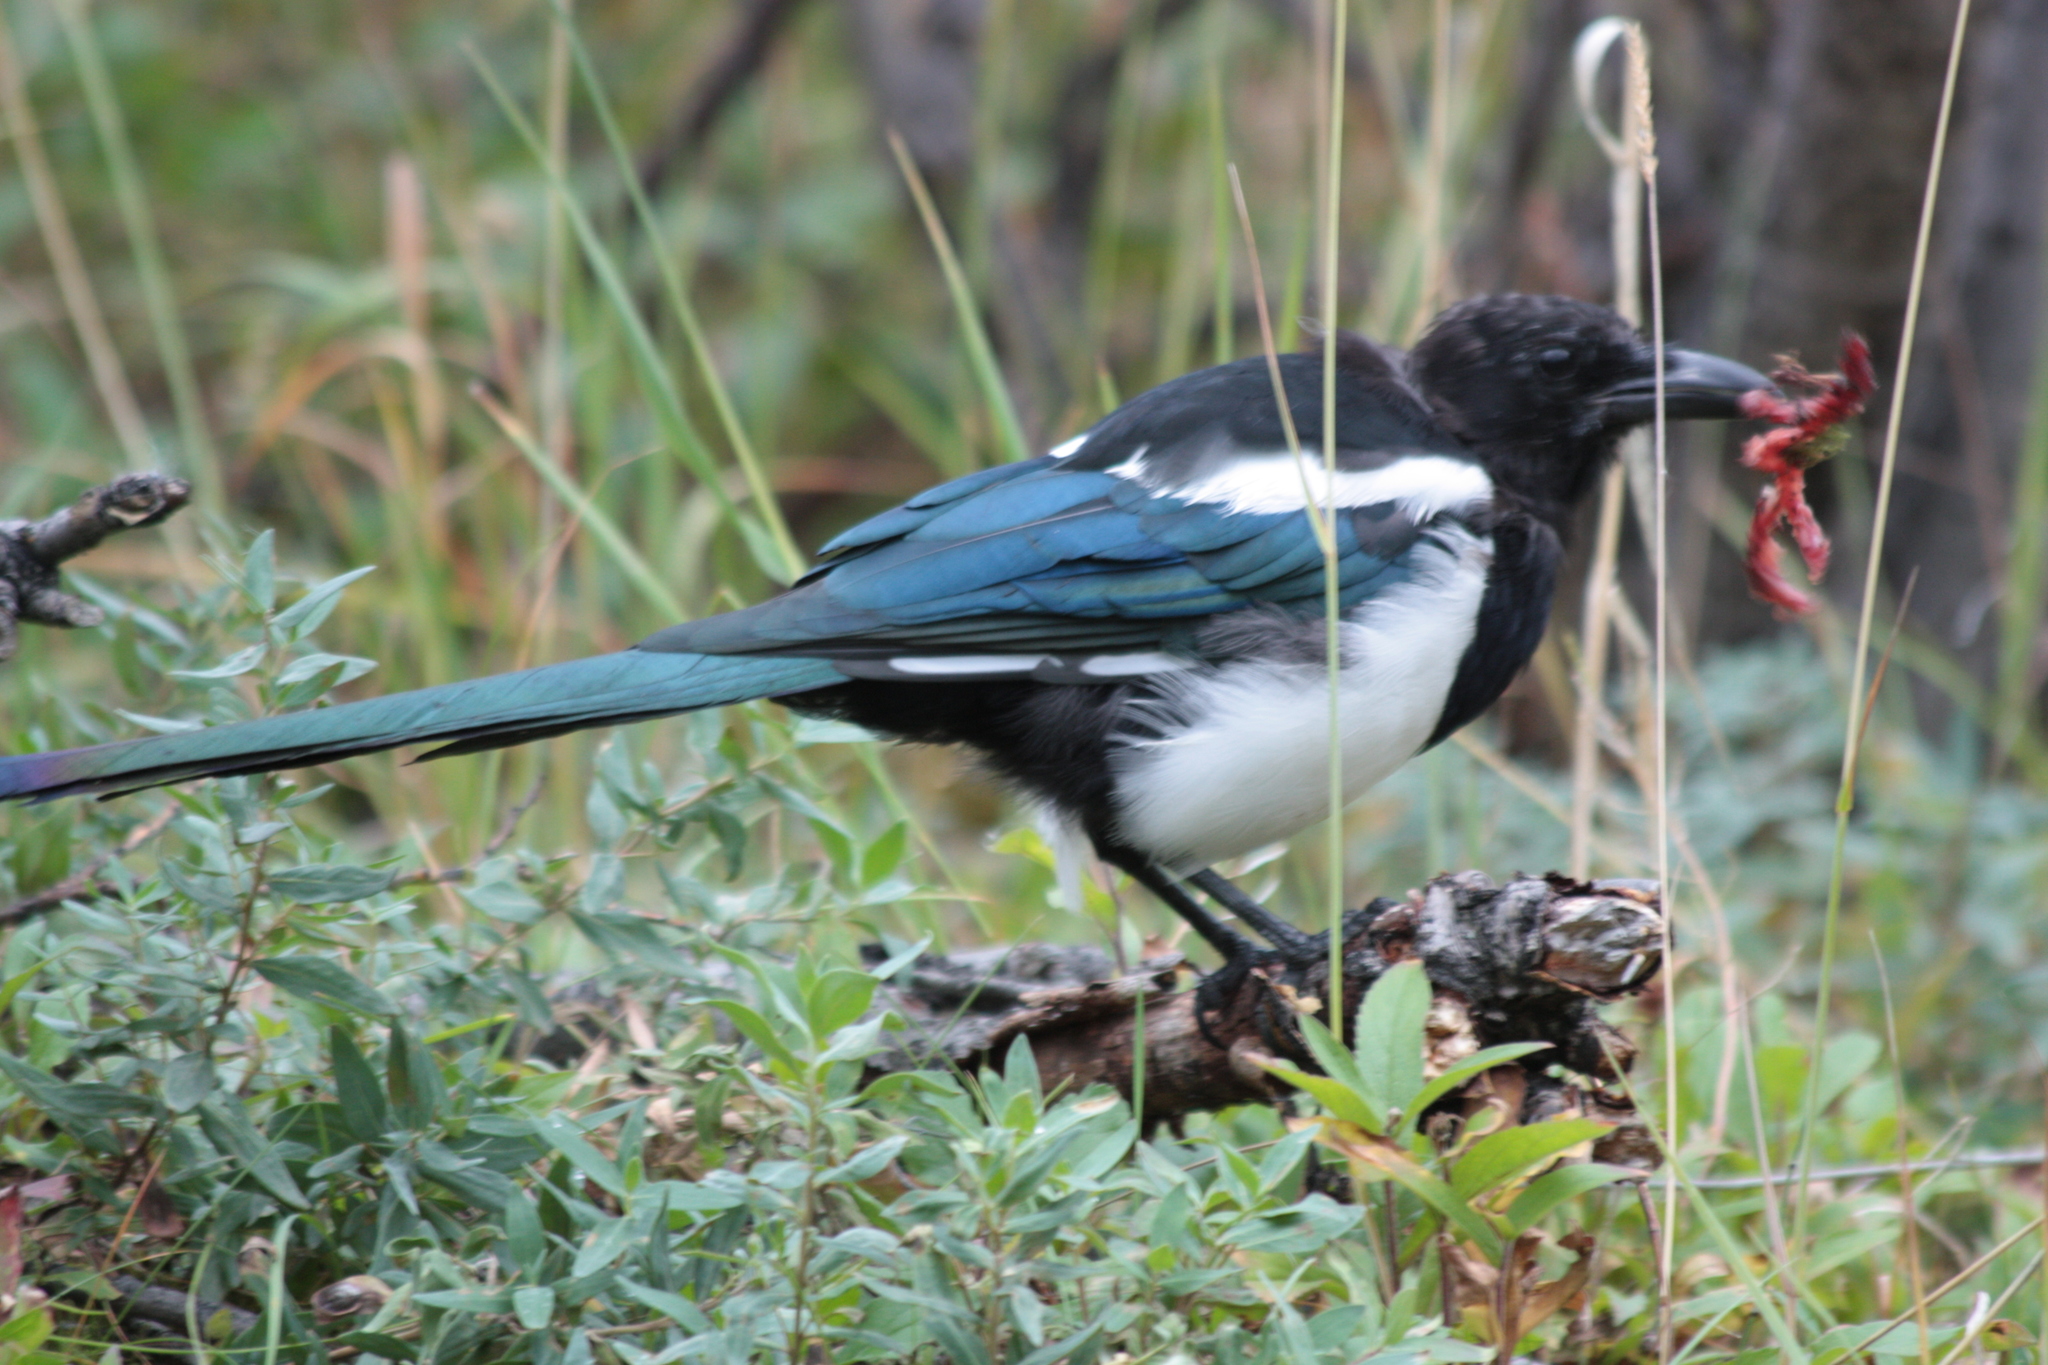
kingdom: Animalia
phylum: Chordata
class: Aves
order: Passeriformes
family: Corvidae
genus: Pica
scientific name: Pica hudsonia
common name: Black-billed magpie
